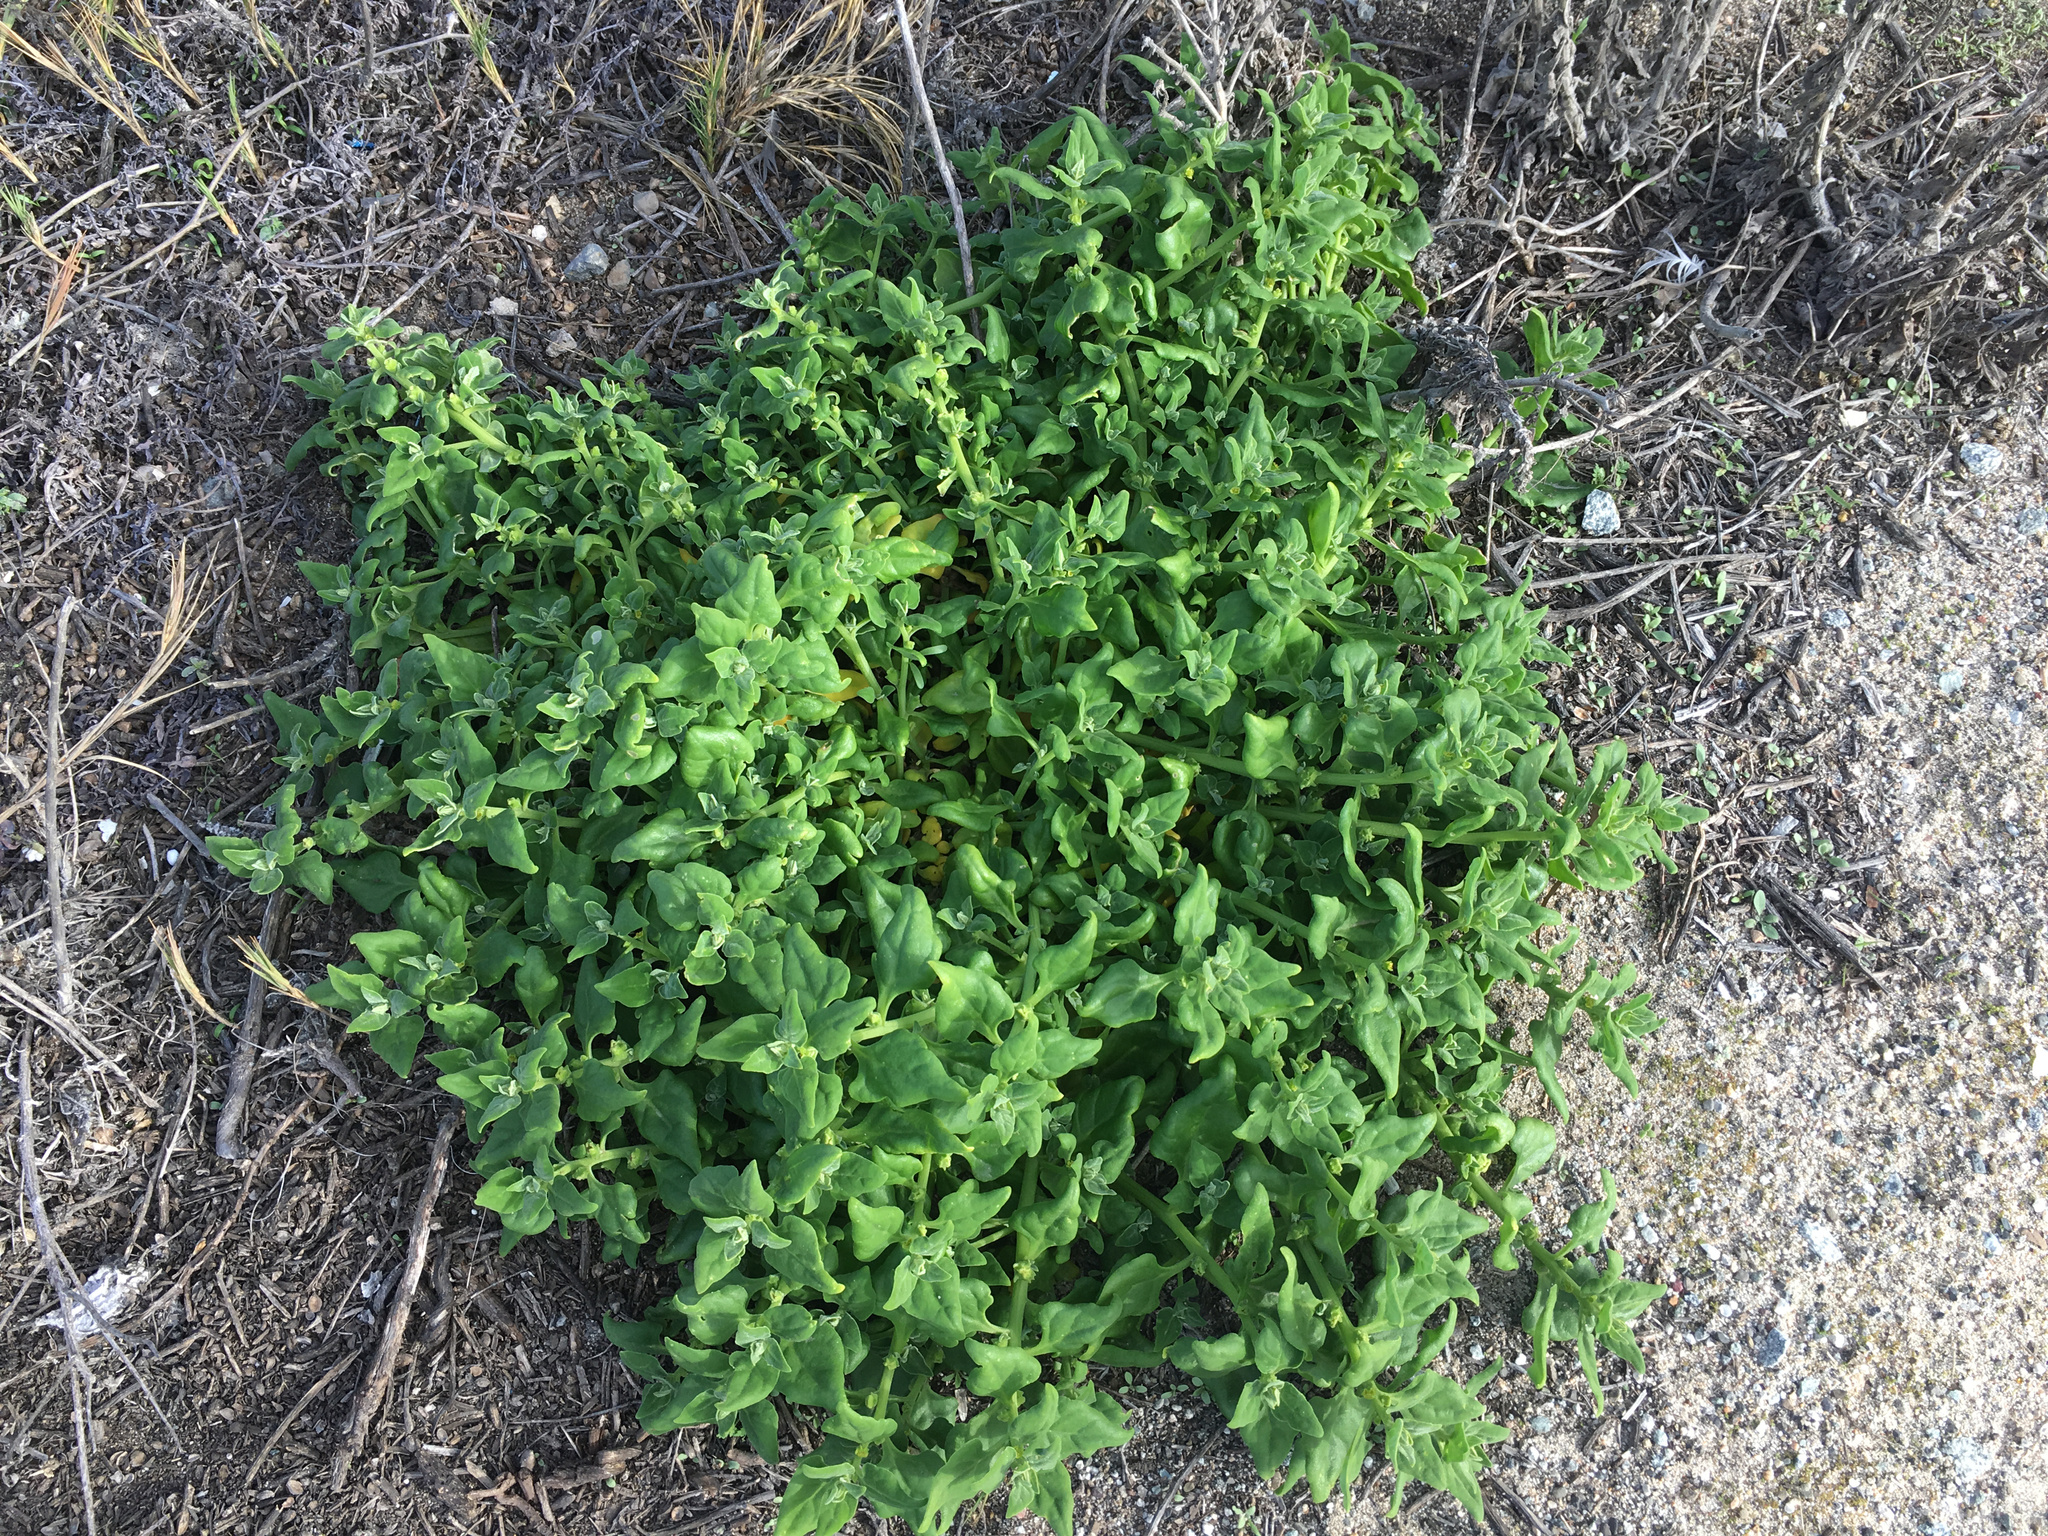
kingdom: Plantae
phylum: Tracheophyta
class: Magnoliopsida
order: Caryophyllales
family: Aizoaceae
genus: Tetragonia
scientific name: Tetragonia tetragonoides
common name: New zealand-spinach
